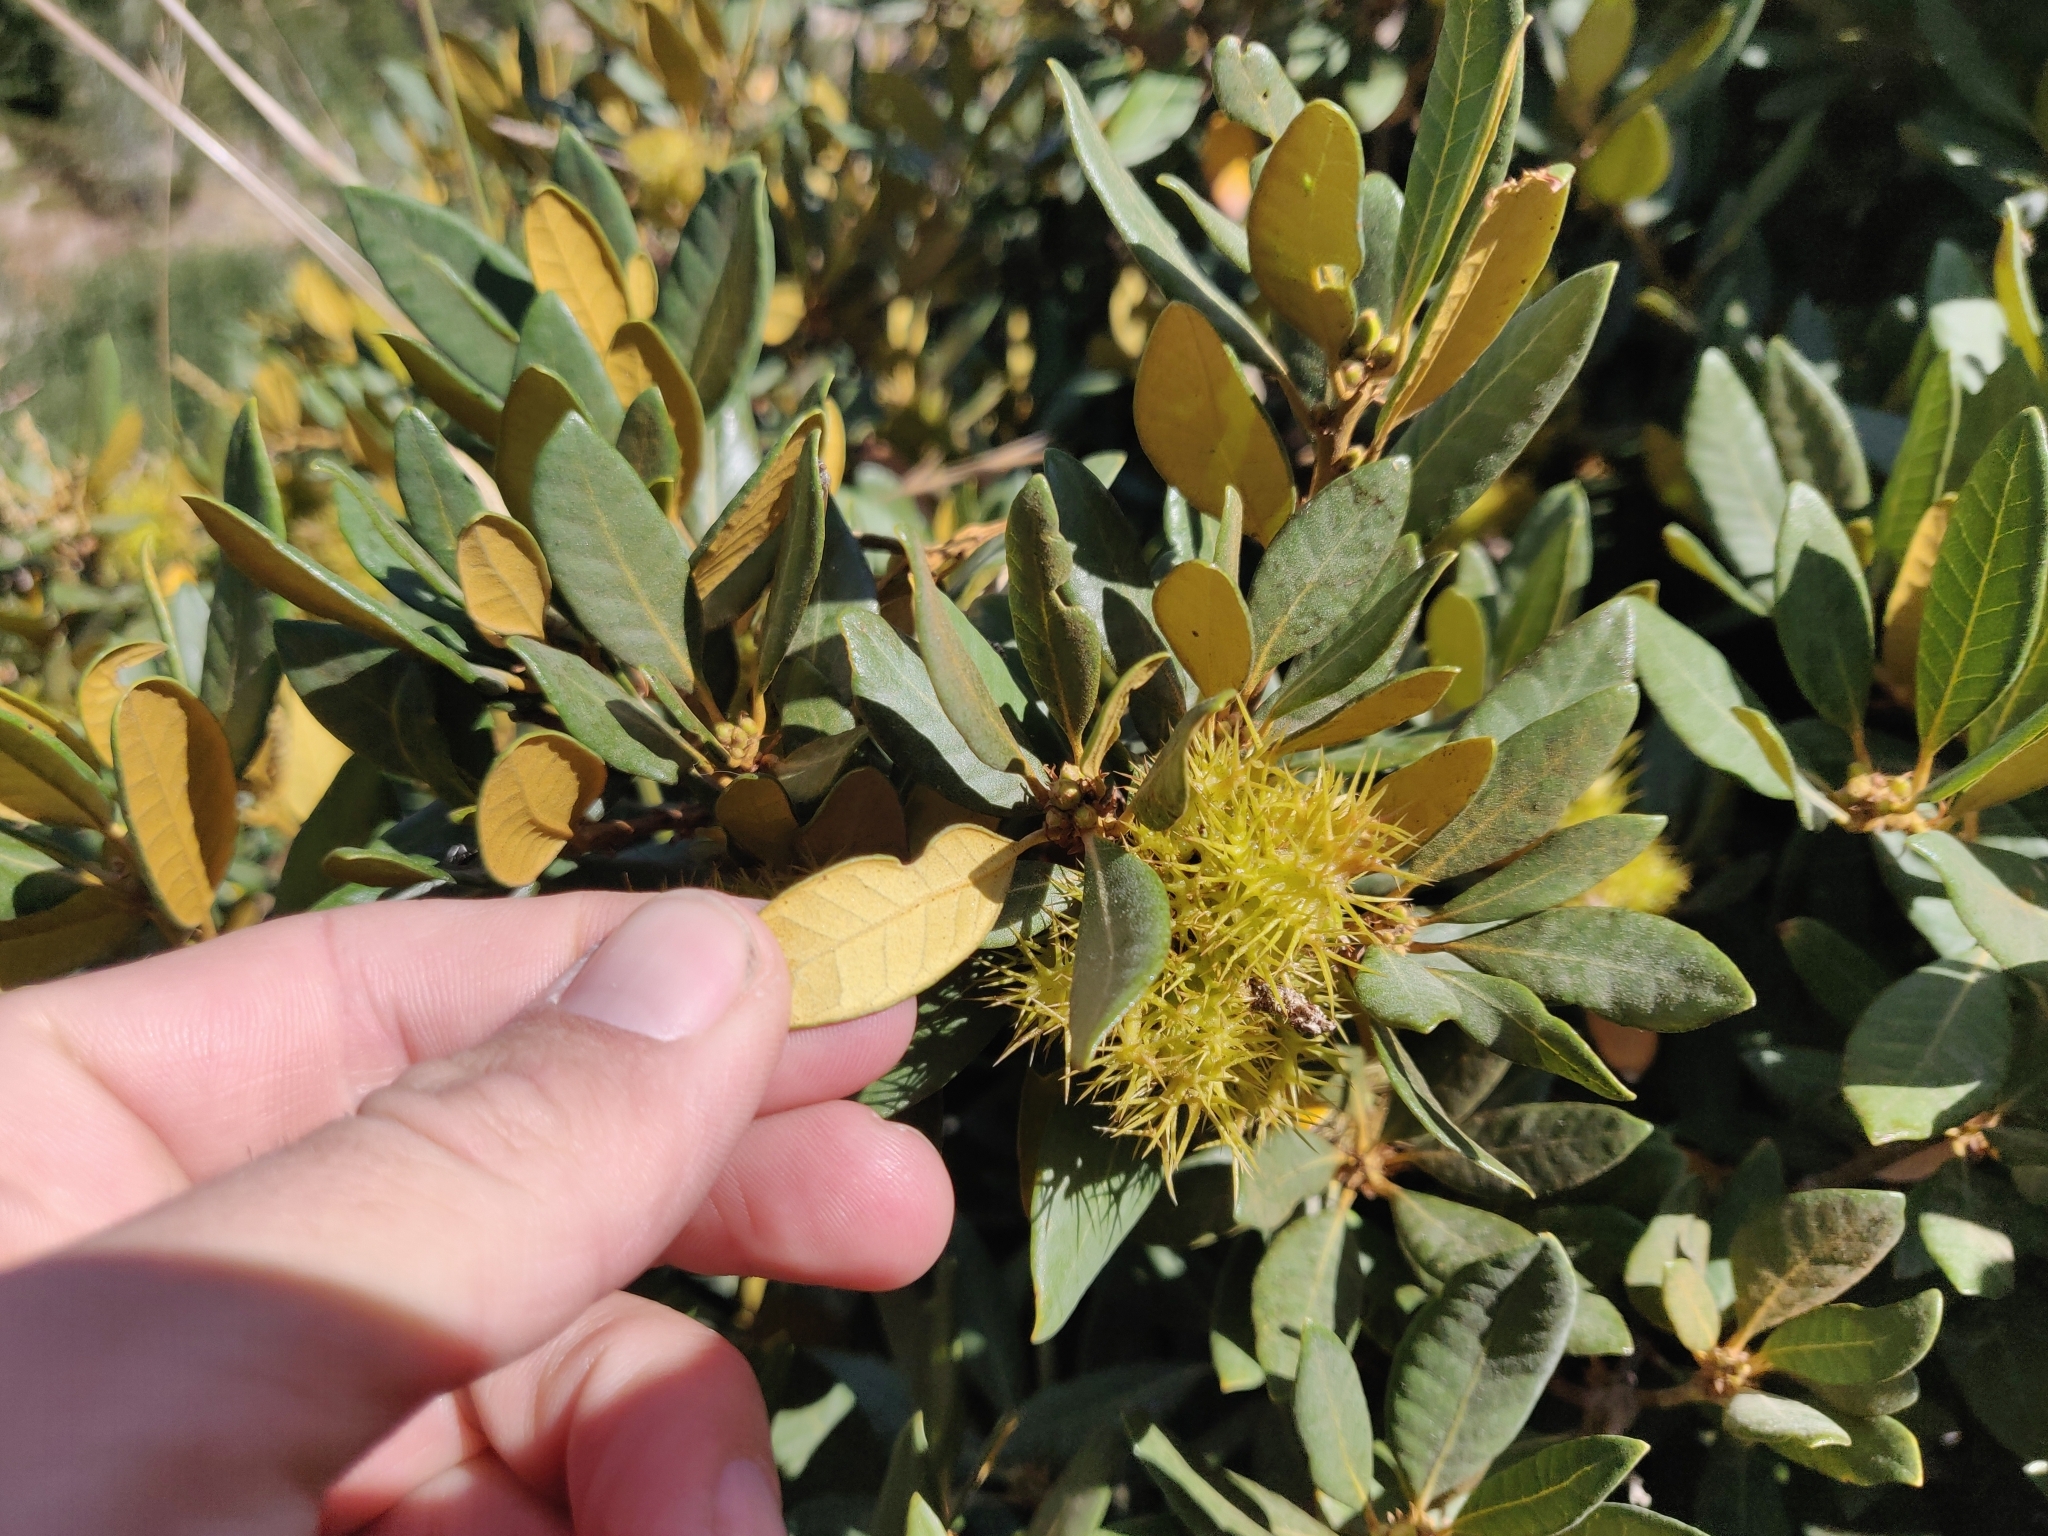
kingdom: Plantae
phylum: Tracheophyta
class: Magnoliopsida
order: Fagales
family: Fagaceae
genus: Chrysolepis
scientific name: Chrysolepis sempervirens
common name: Bush chinquapin
